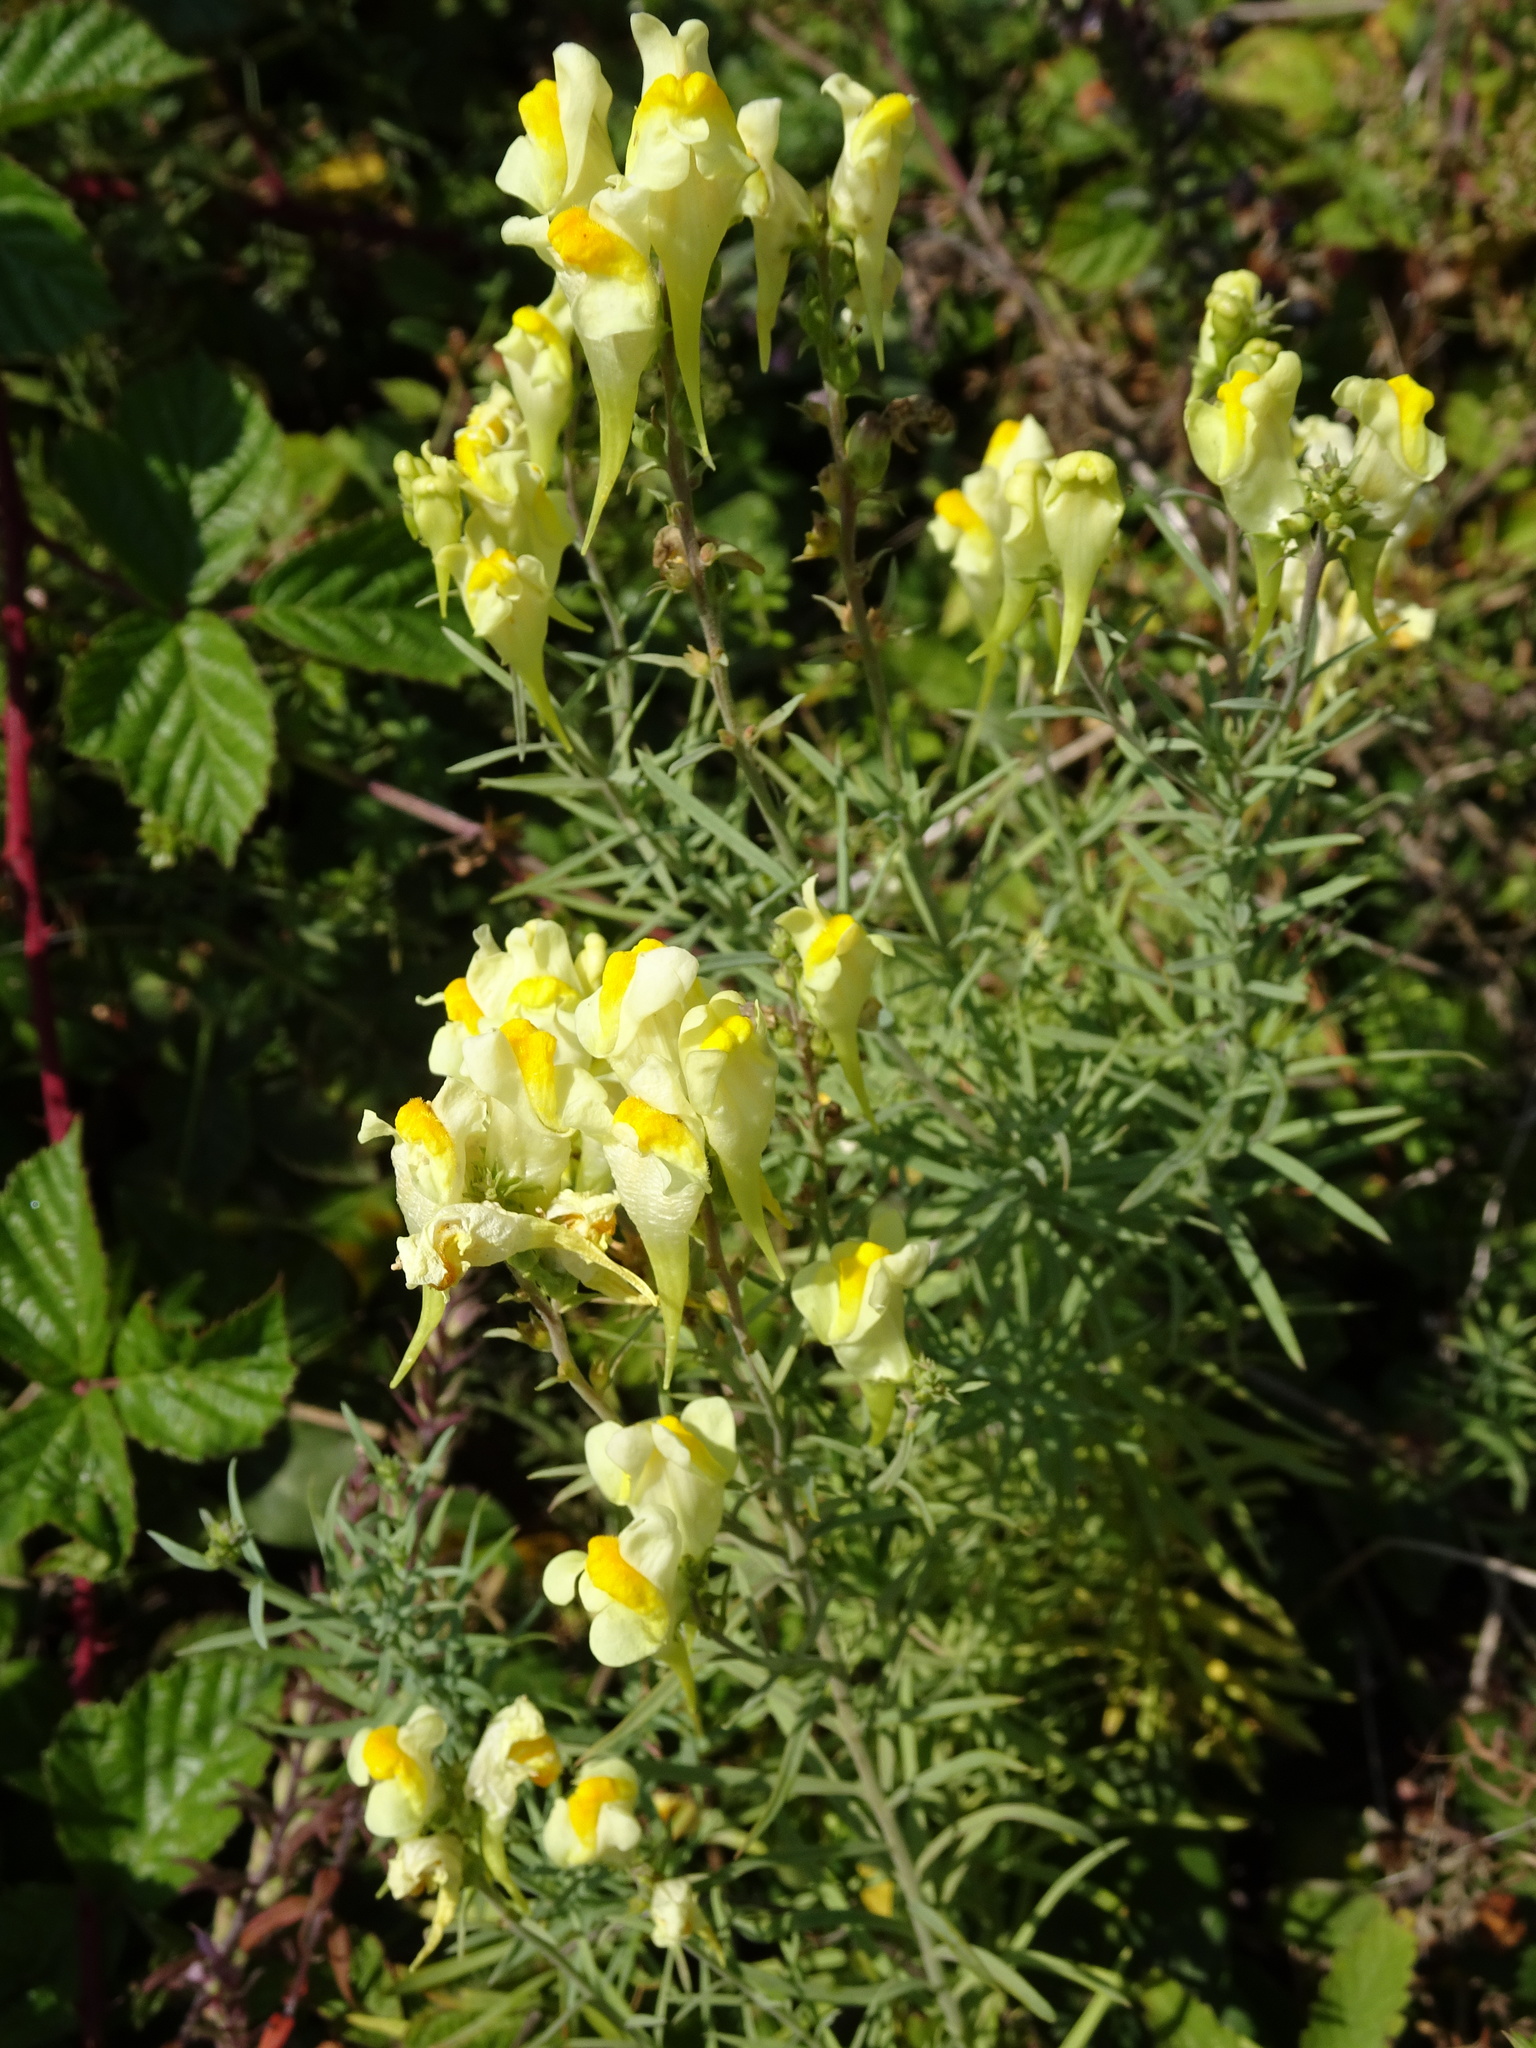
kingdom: Plantae
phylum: Tracheophyta
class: Magnoliopsida
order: Lamiales
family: Plantaginaceae
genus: Linaria
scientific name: Linaria vulgaris
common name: Butter and eggs
